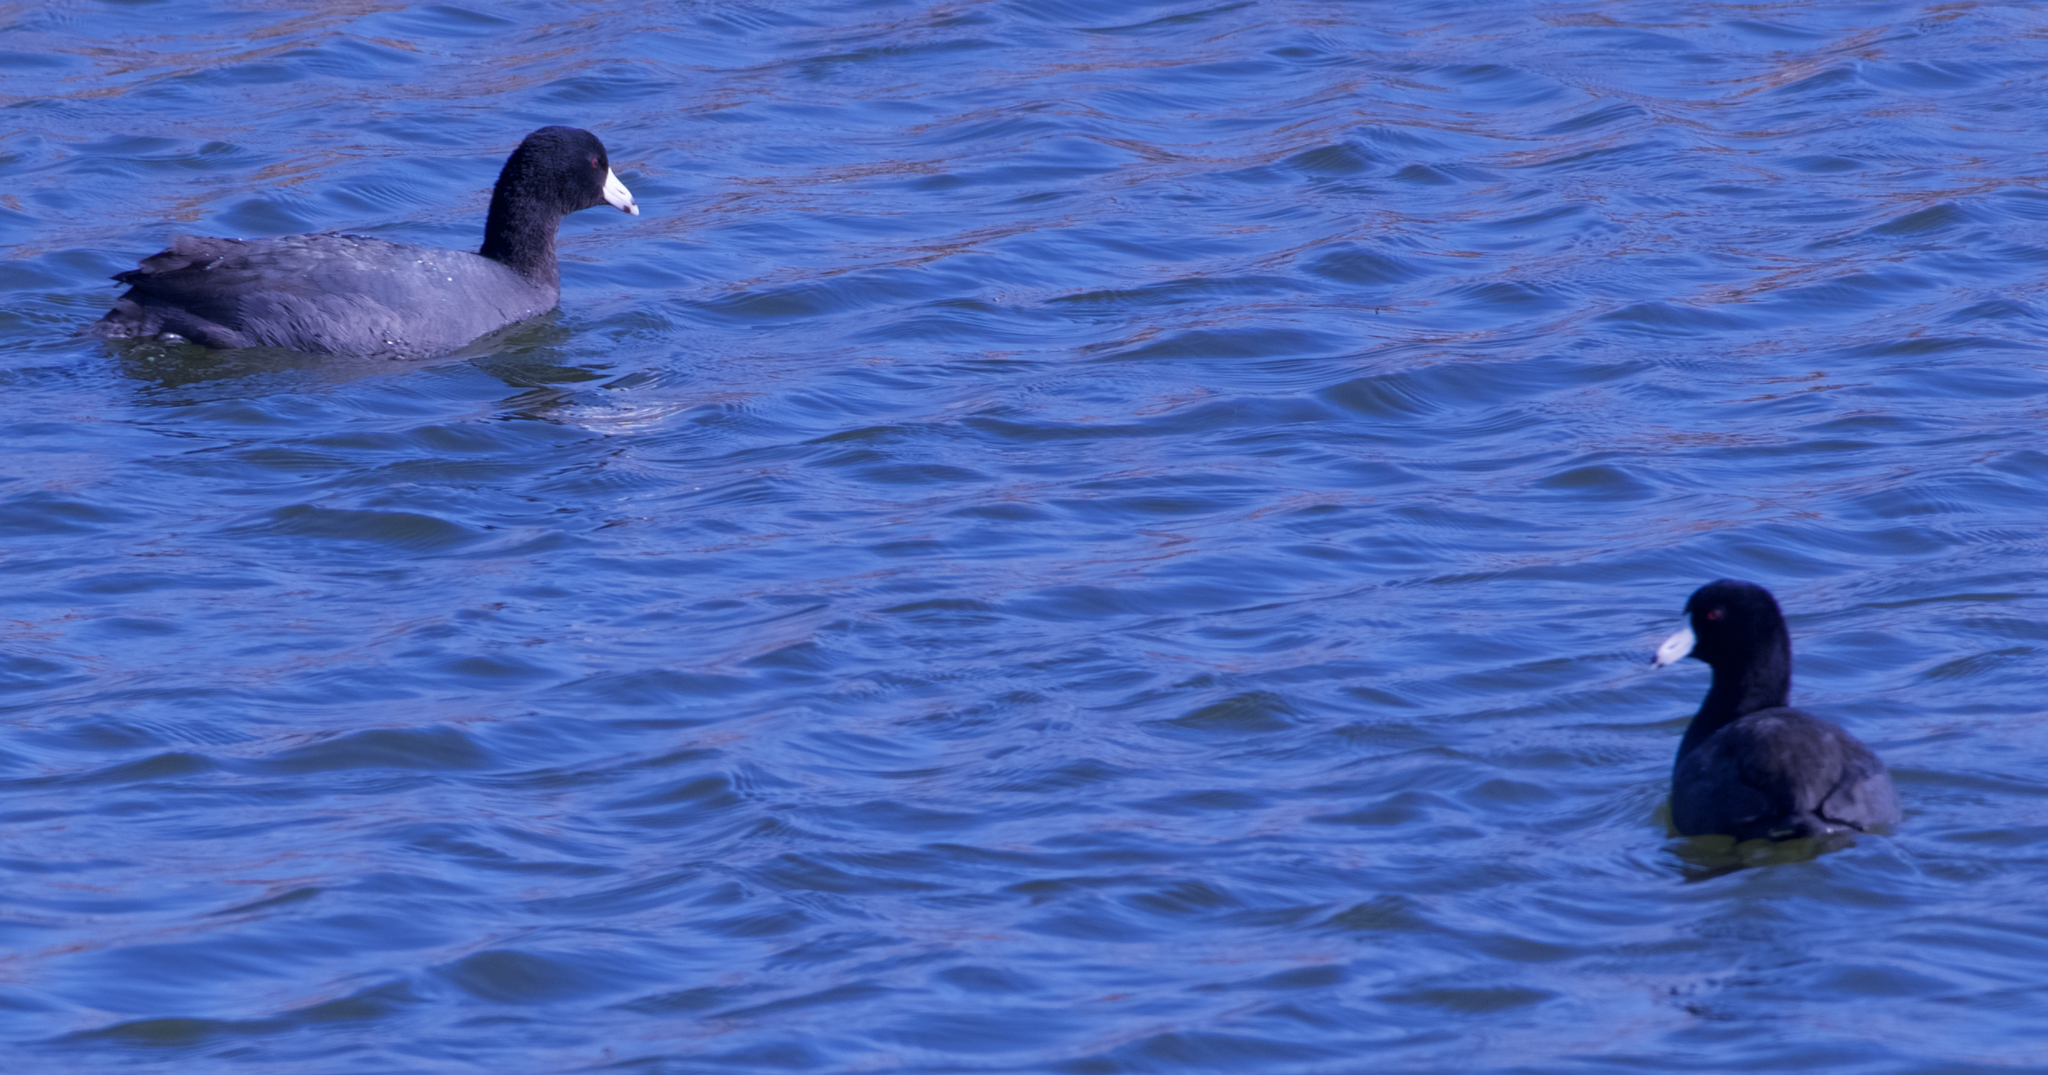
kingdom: Animalia
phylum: Chordata
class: Aves
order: Gruiformes
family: Rallidae
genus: Fulica
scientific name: Fulica americana
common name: American coot
